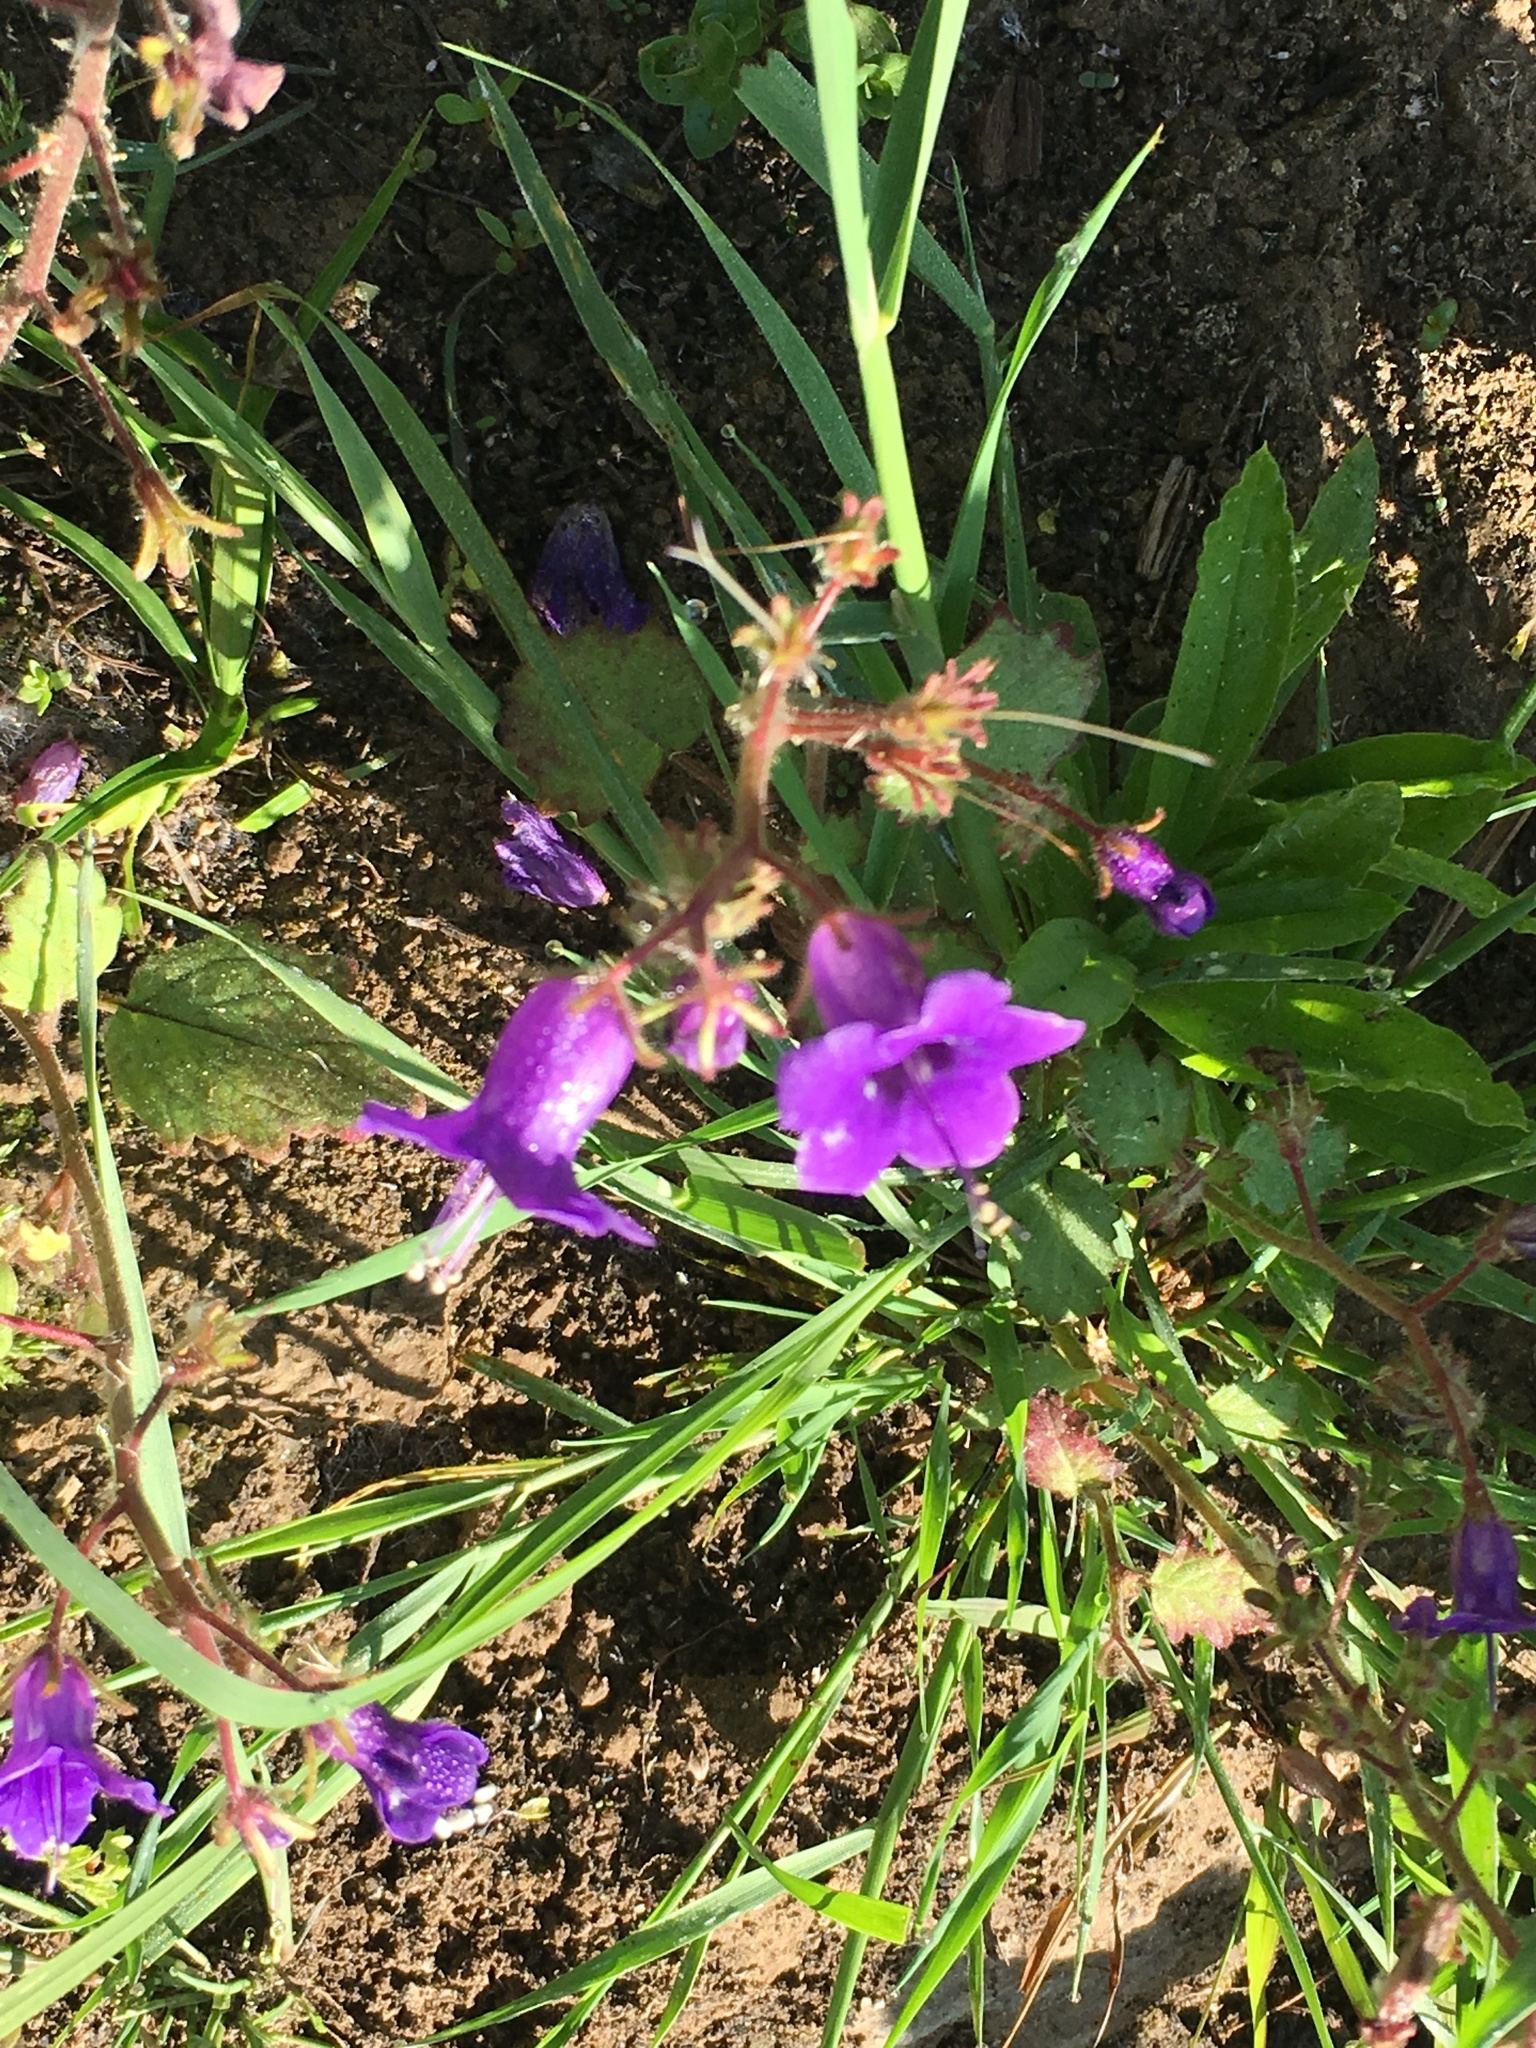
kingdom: Plantae
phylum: Tracheophyta
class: Magnoliopsida
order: Boraginales
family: Hydrophyllaceae
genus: Phacelia
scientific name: Phacelia minor
